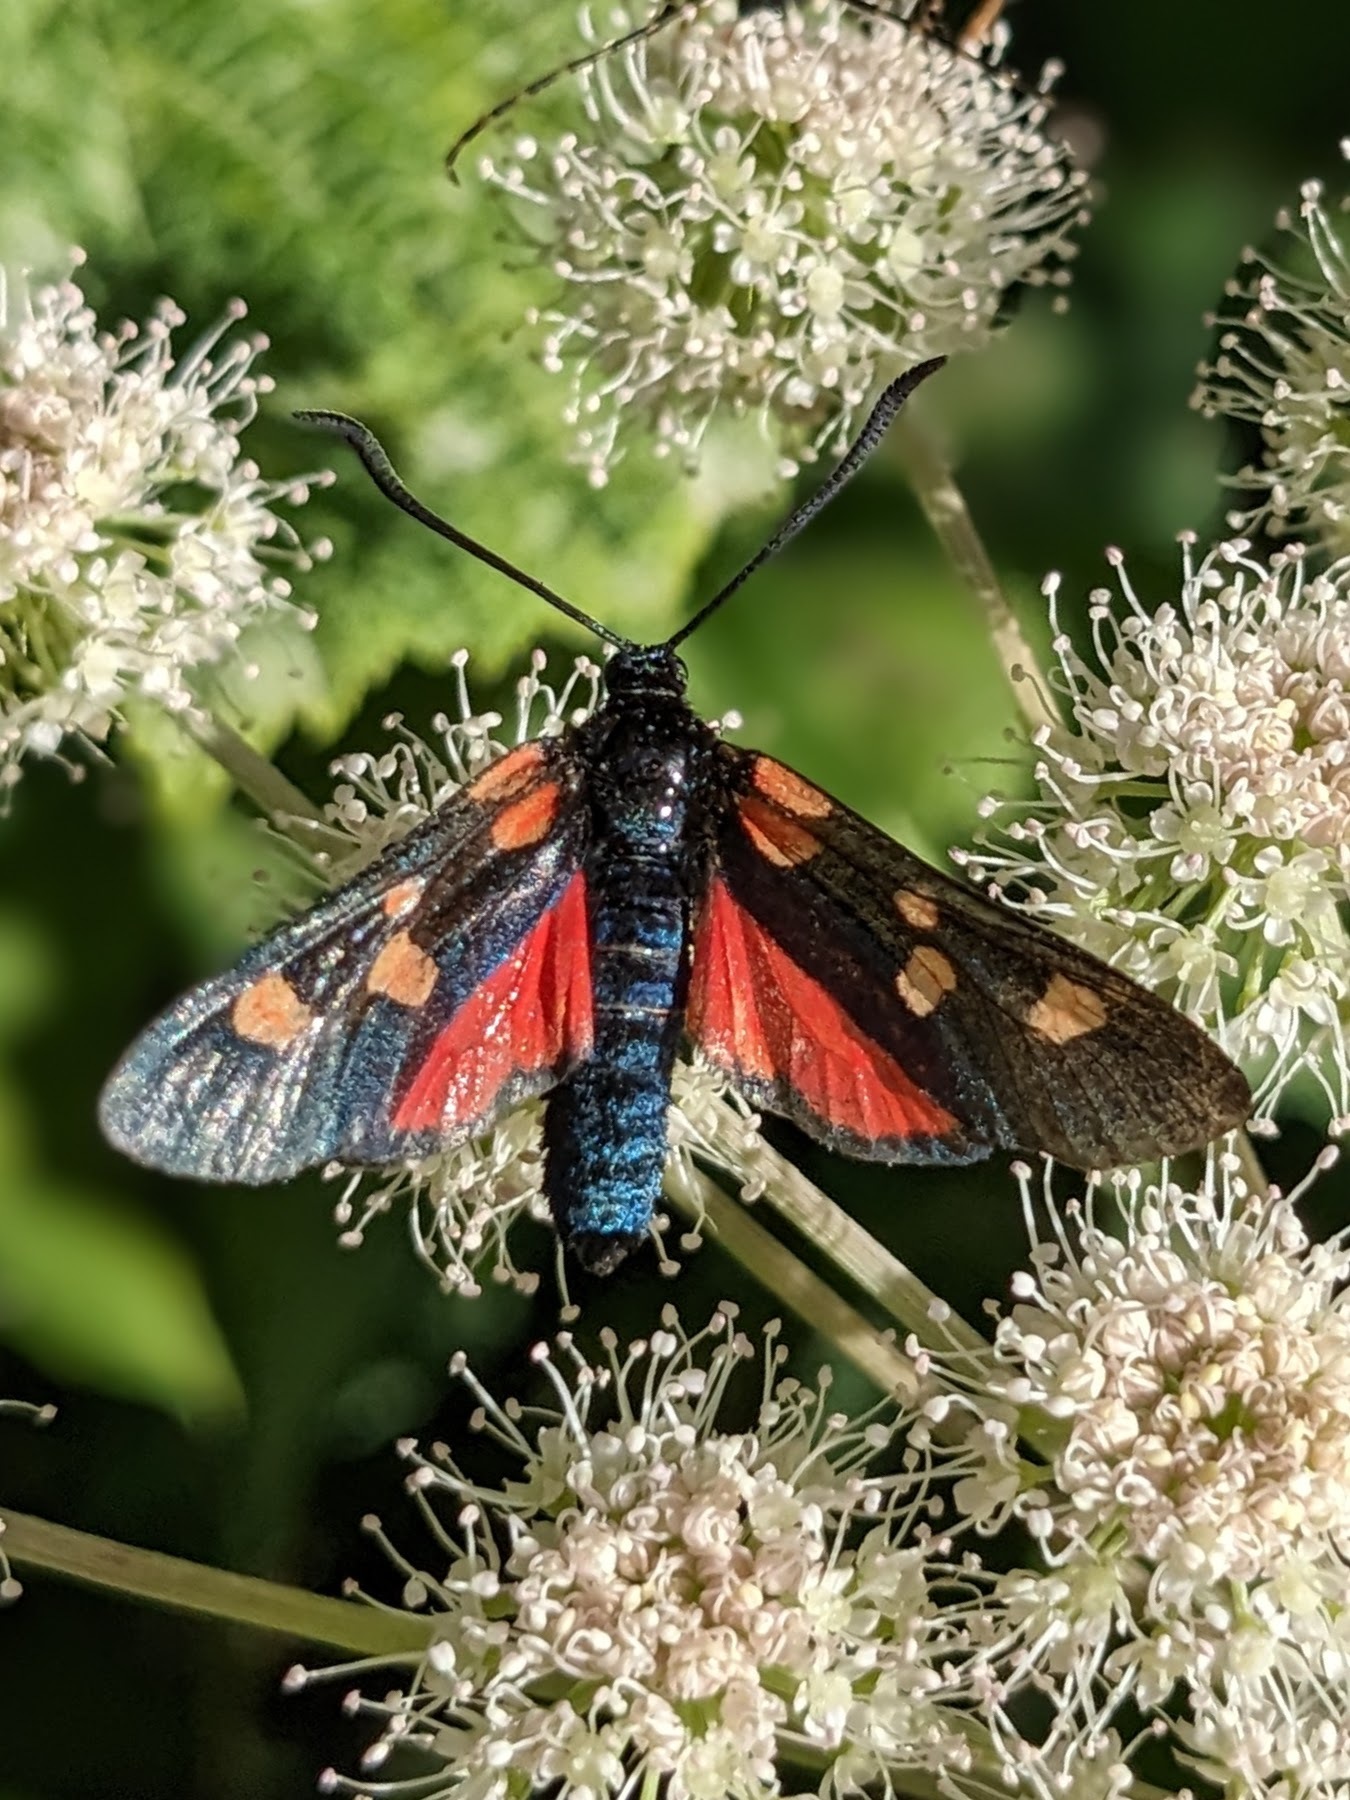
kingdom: Animalia
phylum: Arthropoda
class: Insecta
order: Lepidoptera
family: Zygaenidae
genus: Zygaena
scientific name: Zygaena lonicerae
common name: Narrow-bordered five-spot burnet
